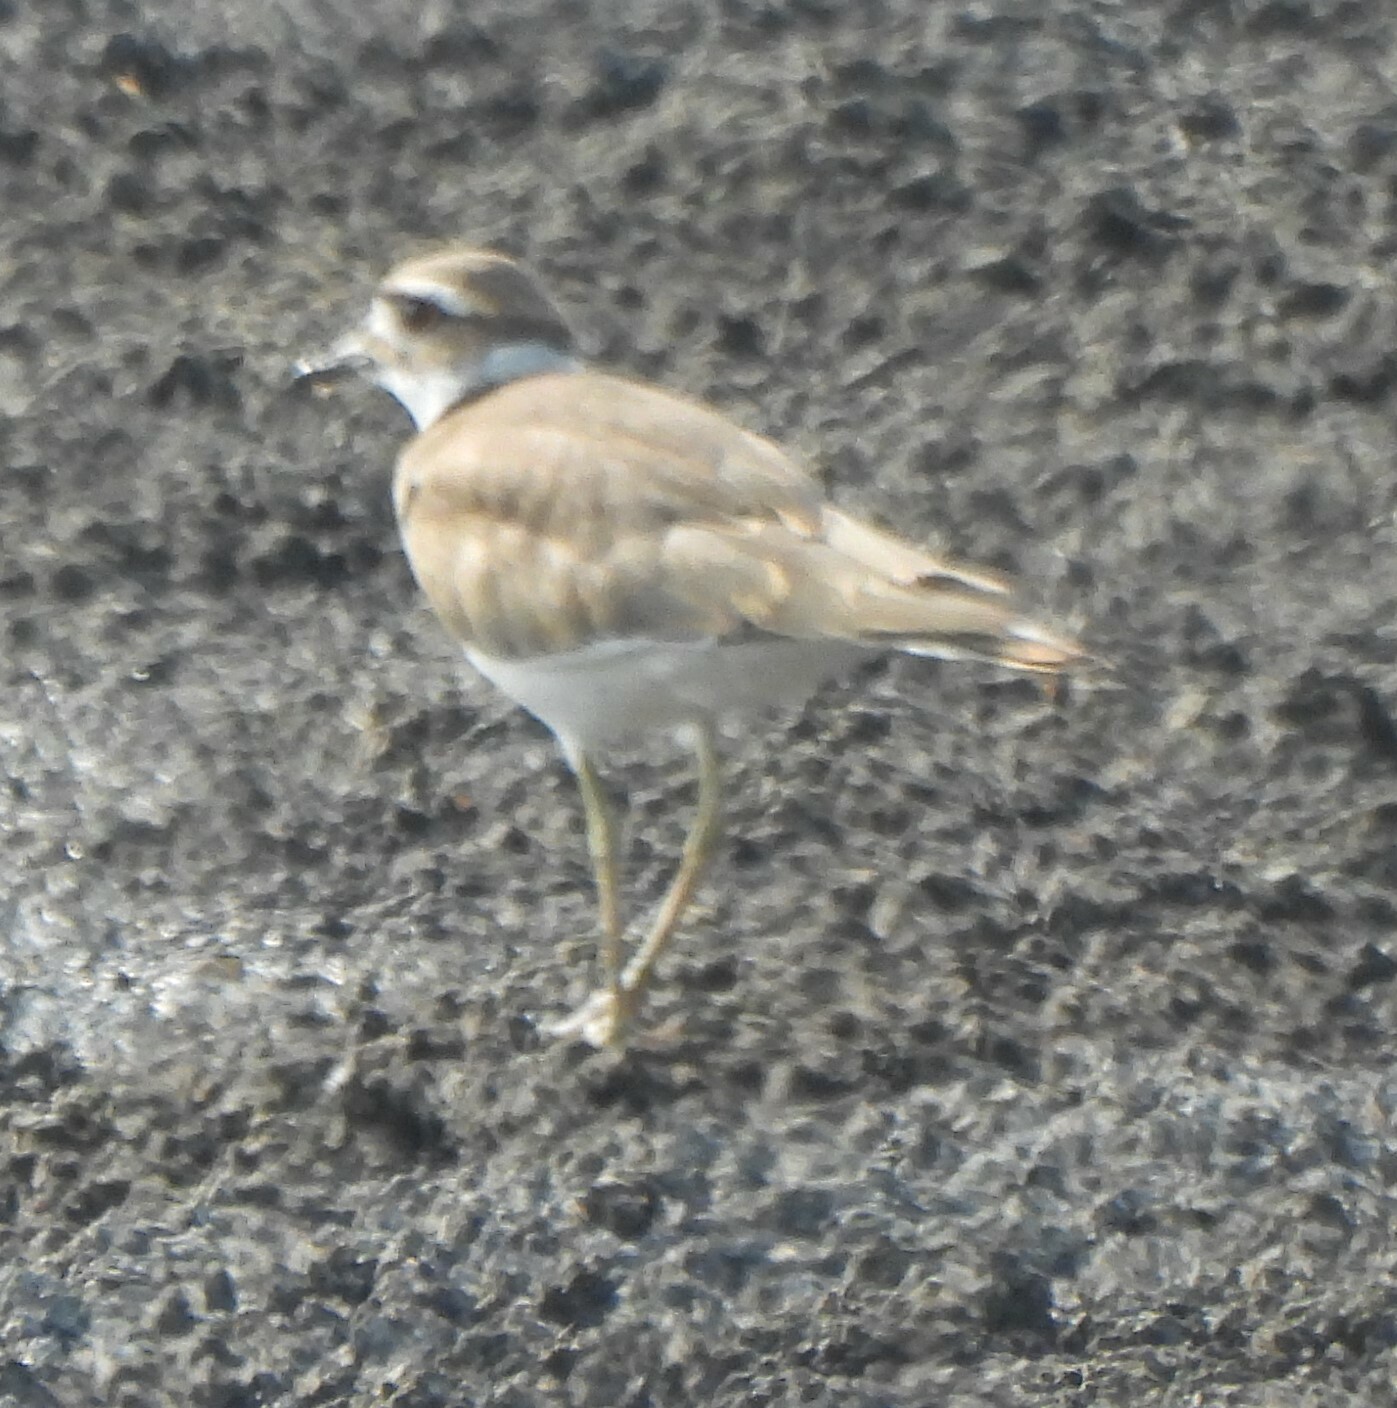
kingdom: Animalia
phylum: Chordata
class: Aves
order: Charadriiformes
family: Charadriidae
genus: Charadrius
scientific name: Charadrius vociferus
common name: Killdeer
